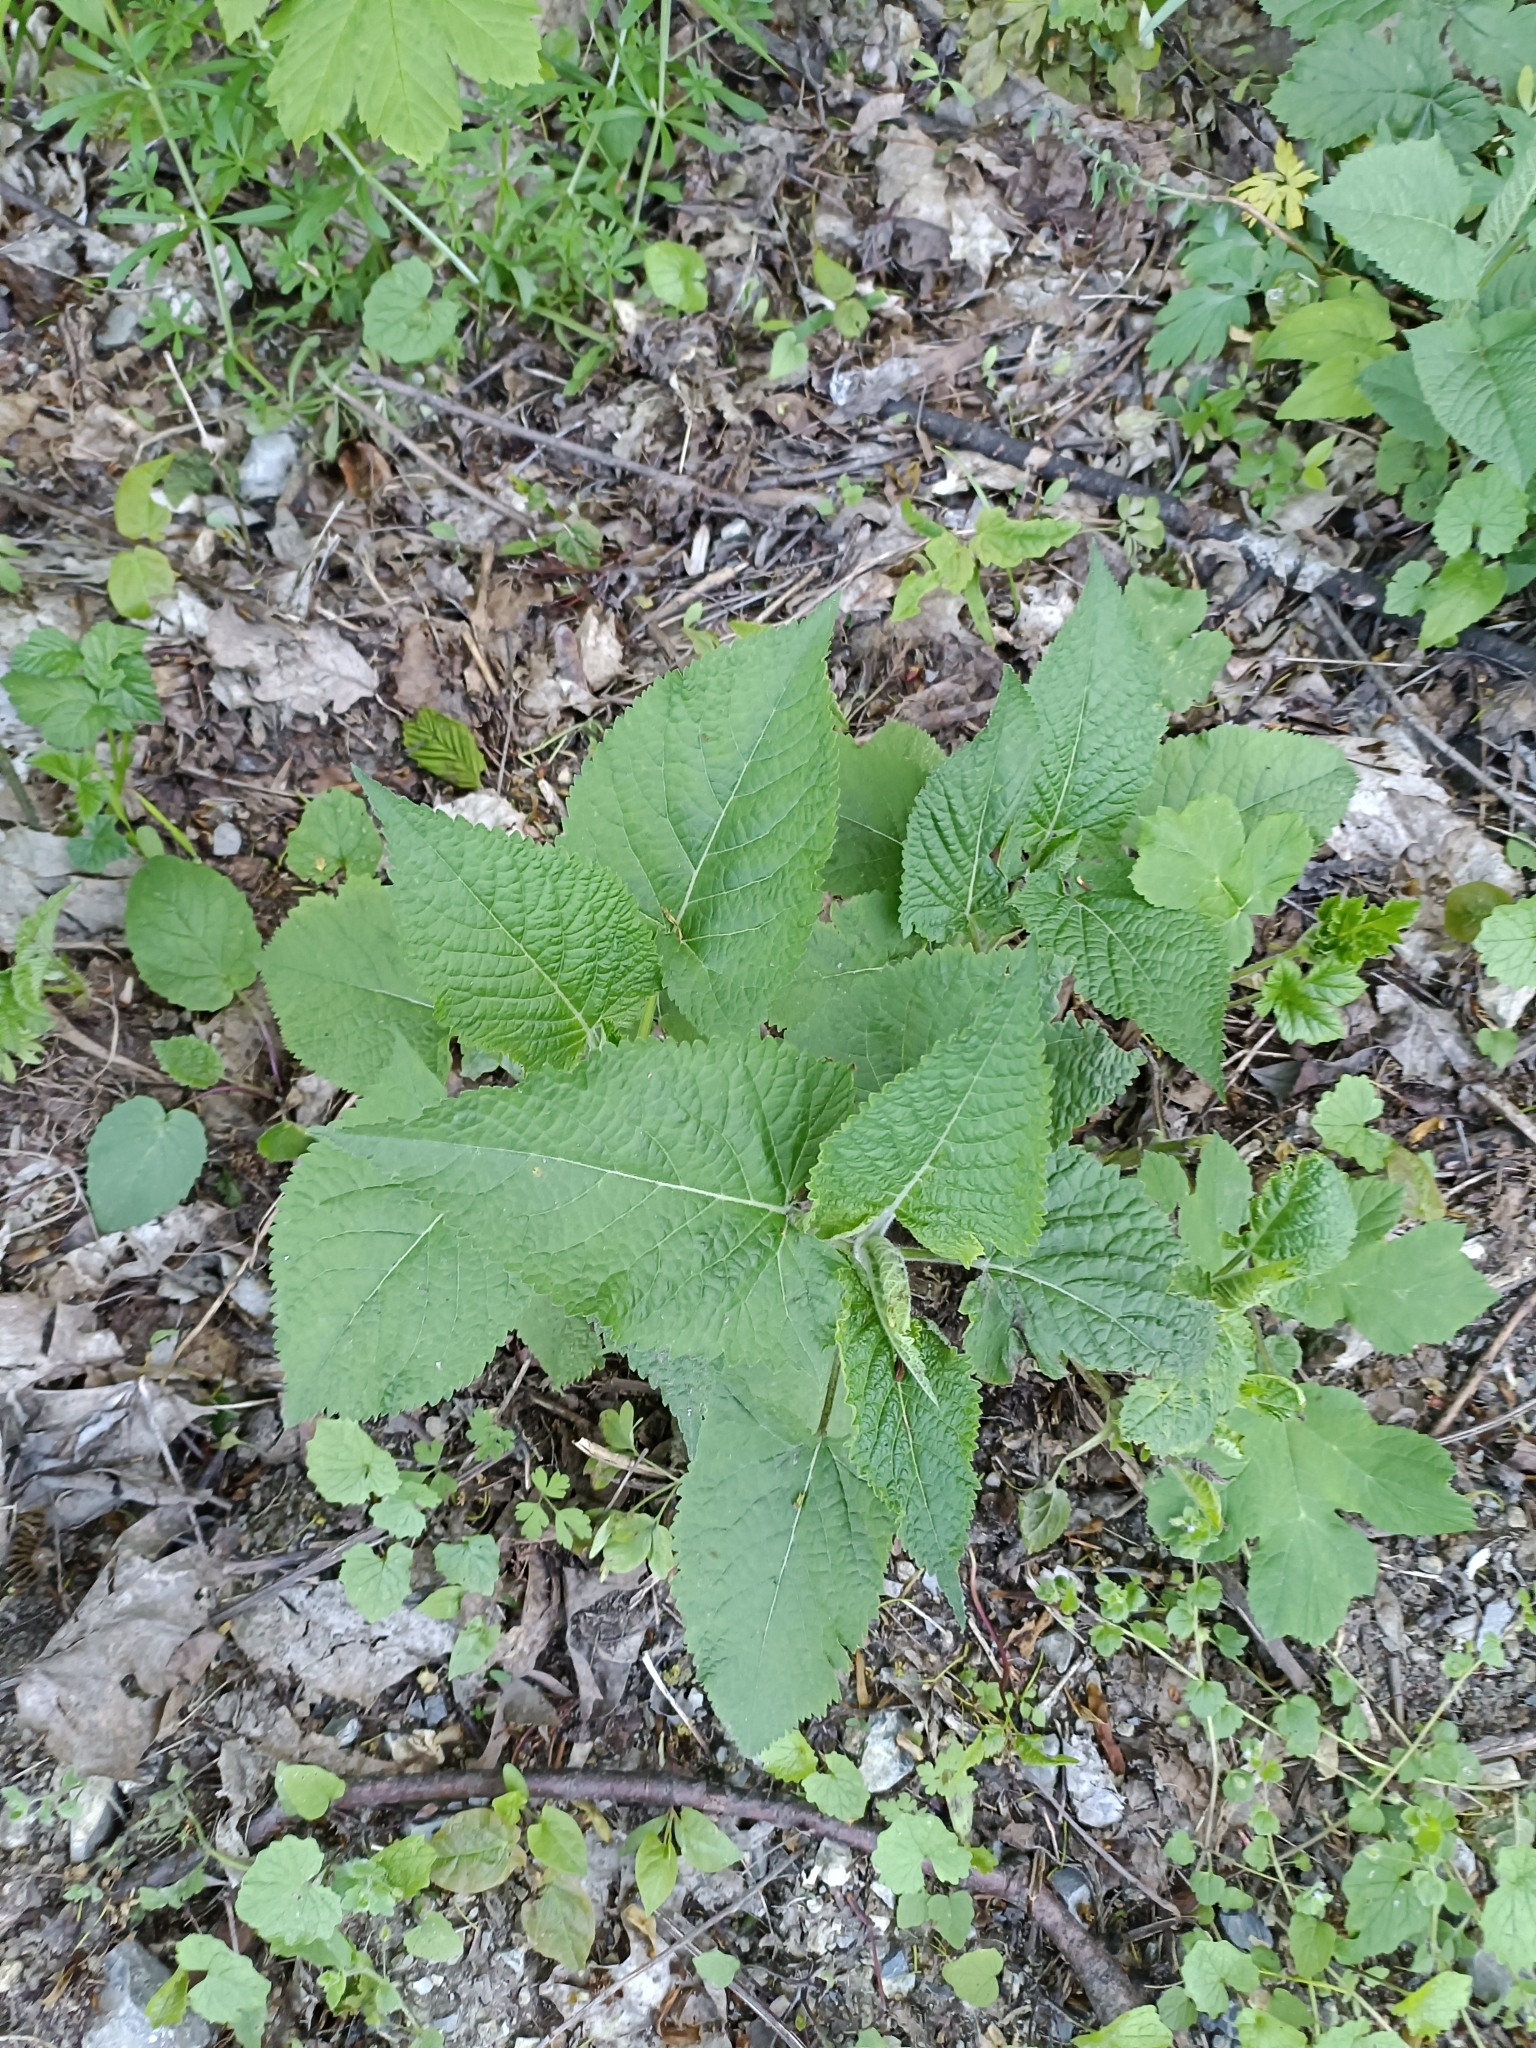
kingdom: Plantae
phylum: Tracheophyta
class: Magnoliopsida
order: Lamiales
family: Lamiaceae
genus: Salvia
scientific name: Salvia glutinosa
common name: Sticky clary
